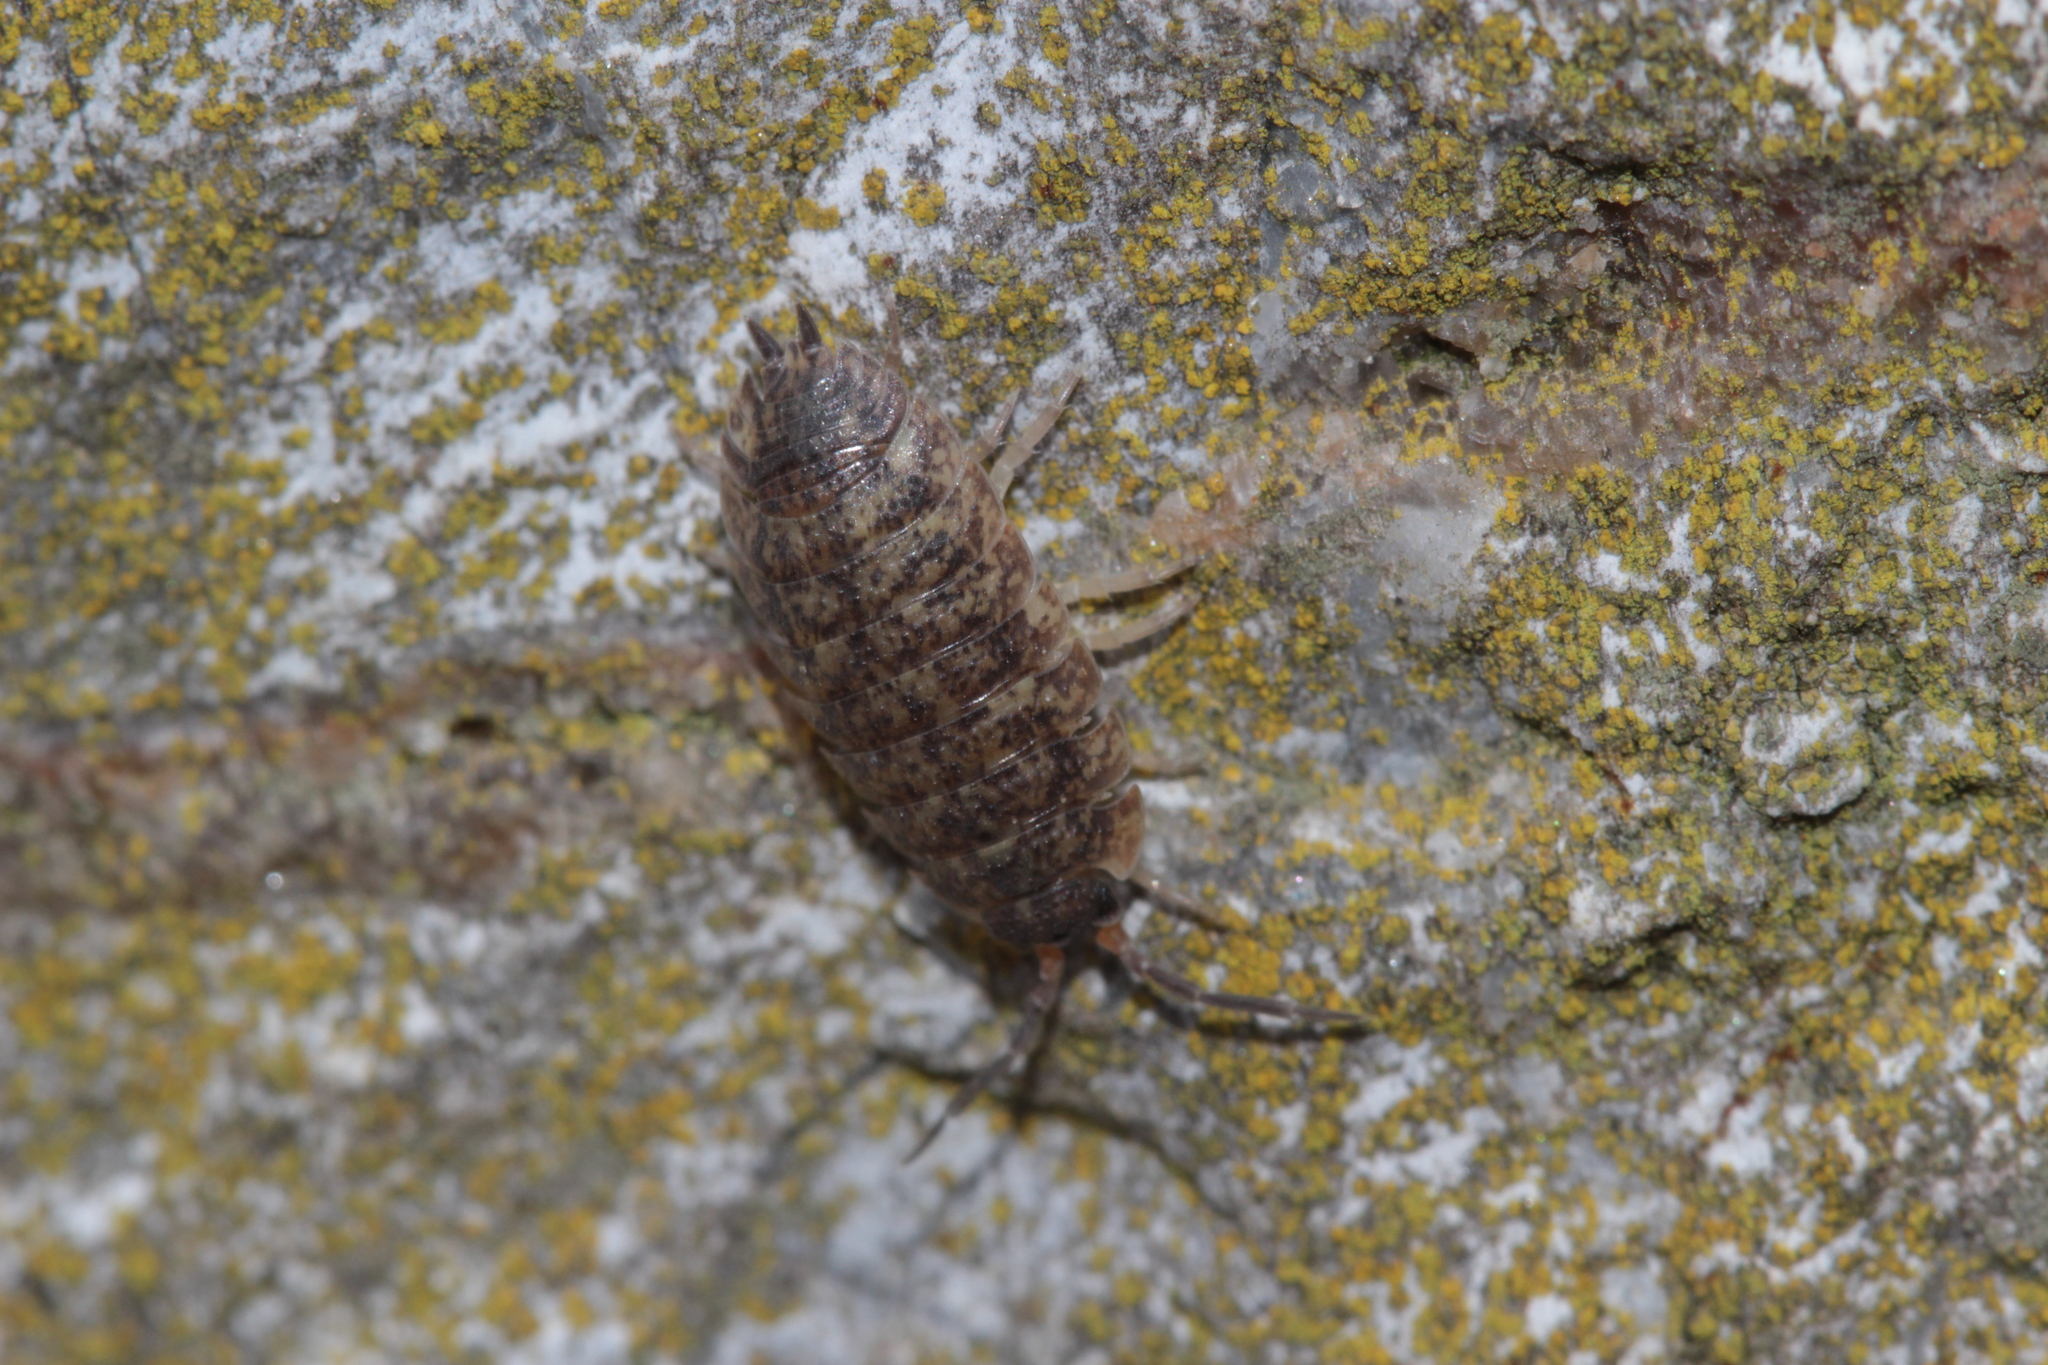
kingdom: Animalia
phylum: Arthropoda
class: Malacostraca
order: Isopoda
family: Porcellionidae
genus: Porcellio
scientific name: Porcellio scaber
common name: Common rough woodlouse
